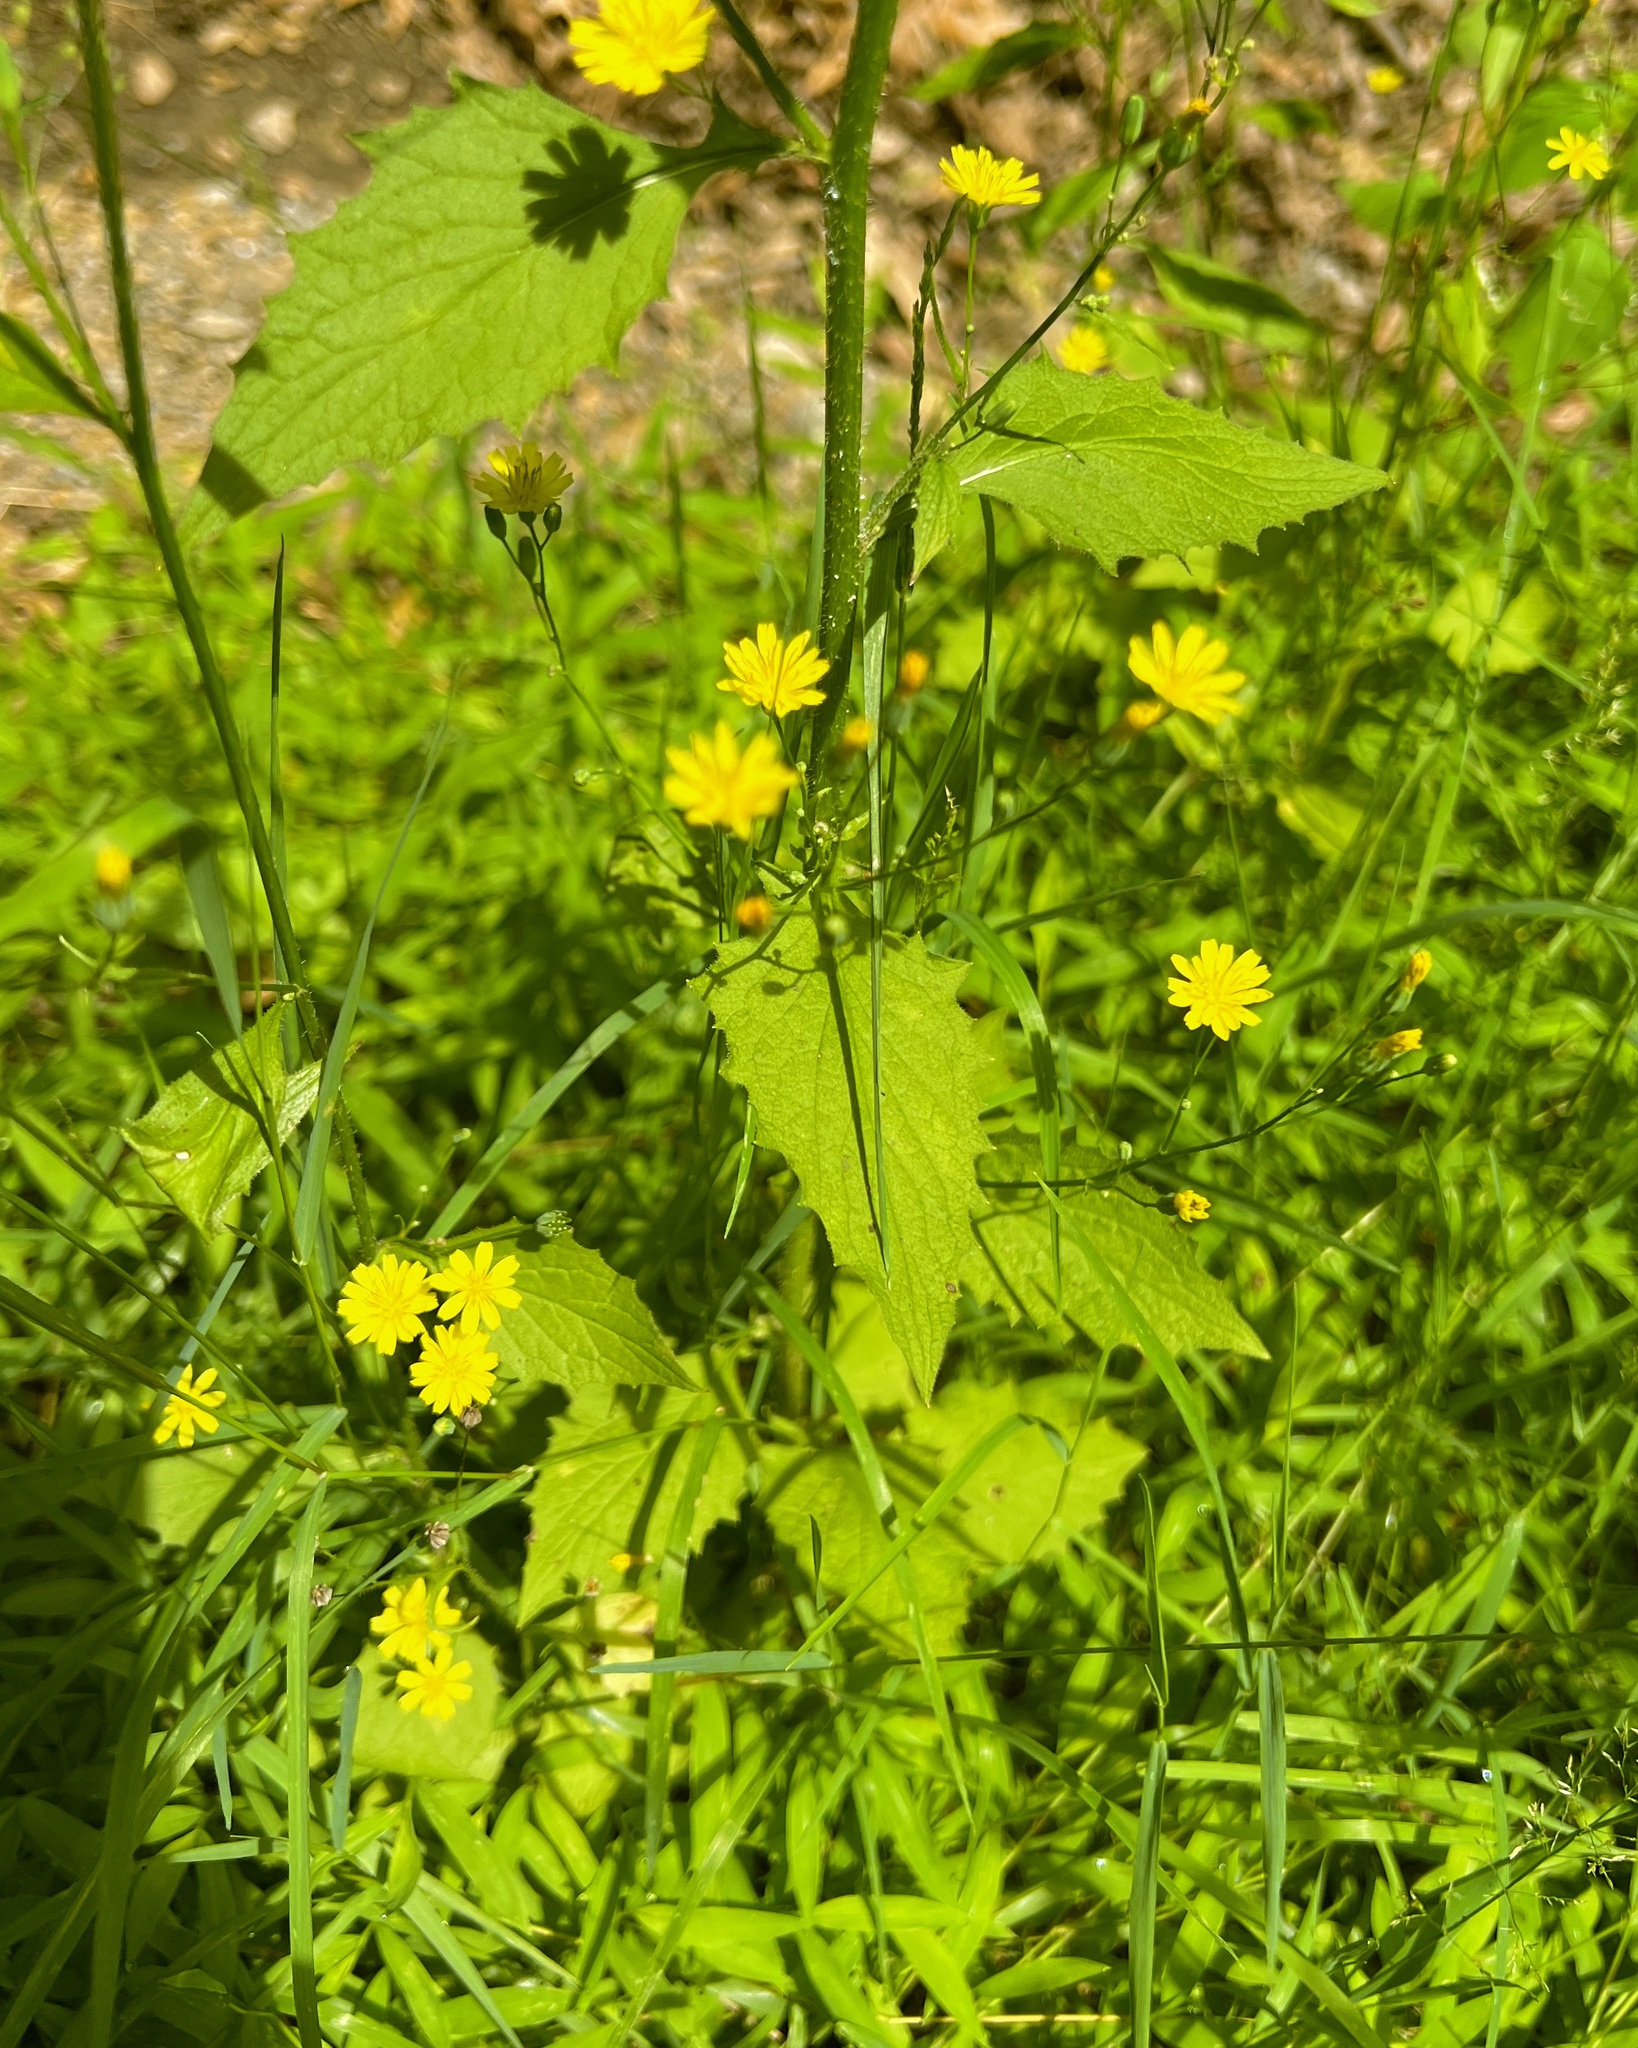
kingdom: Plantae
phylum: Tracheophyta
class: Magnoliopsida
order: Asterales
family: Asteraceae
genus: Lapsana
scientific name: Lapsana communis
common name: Nipplewort
